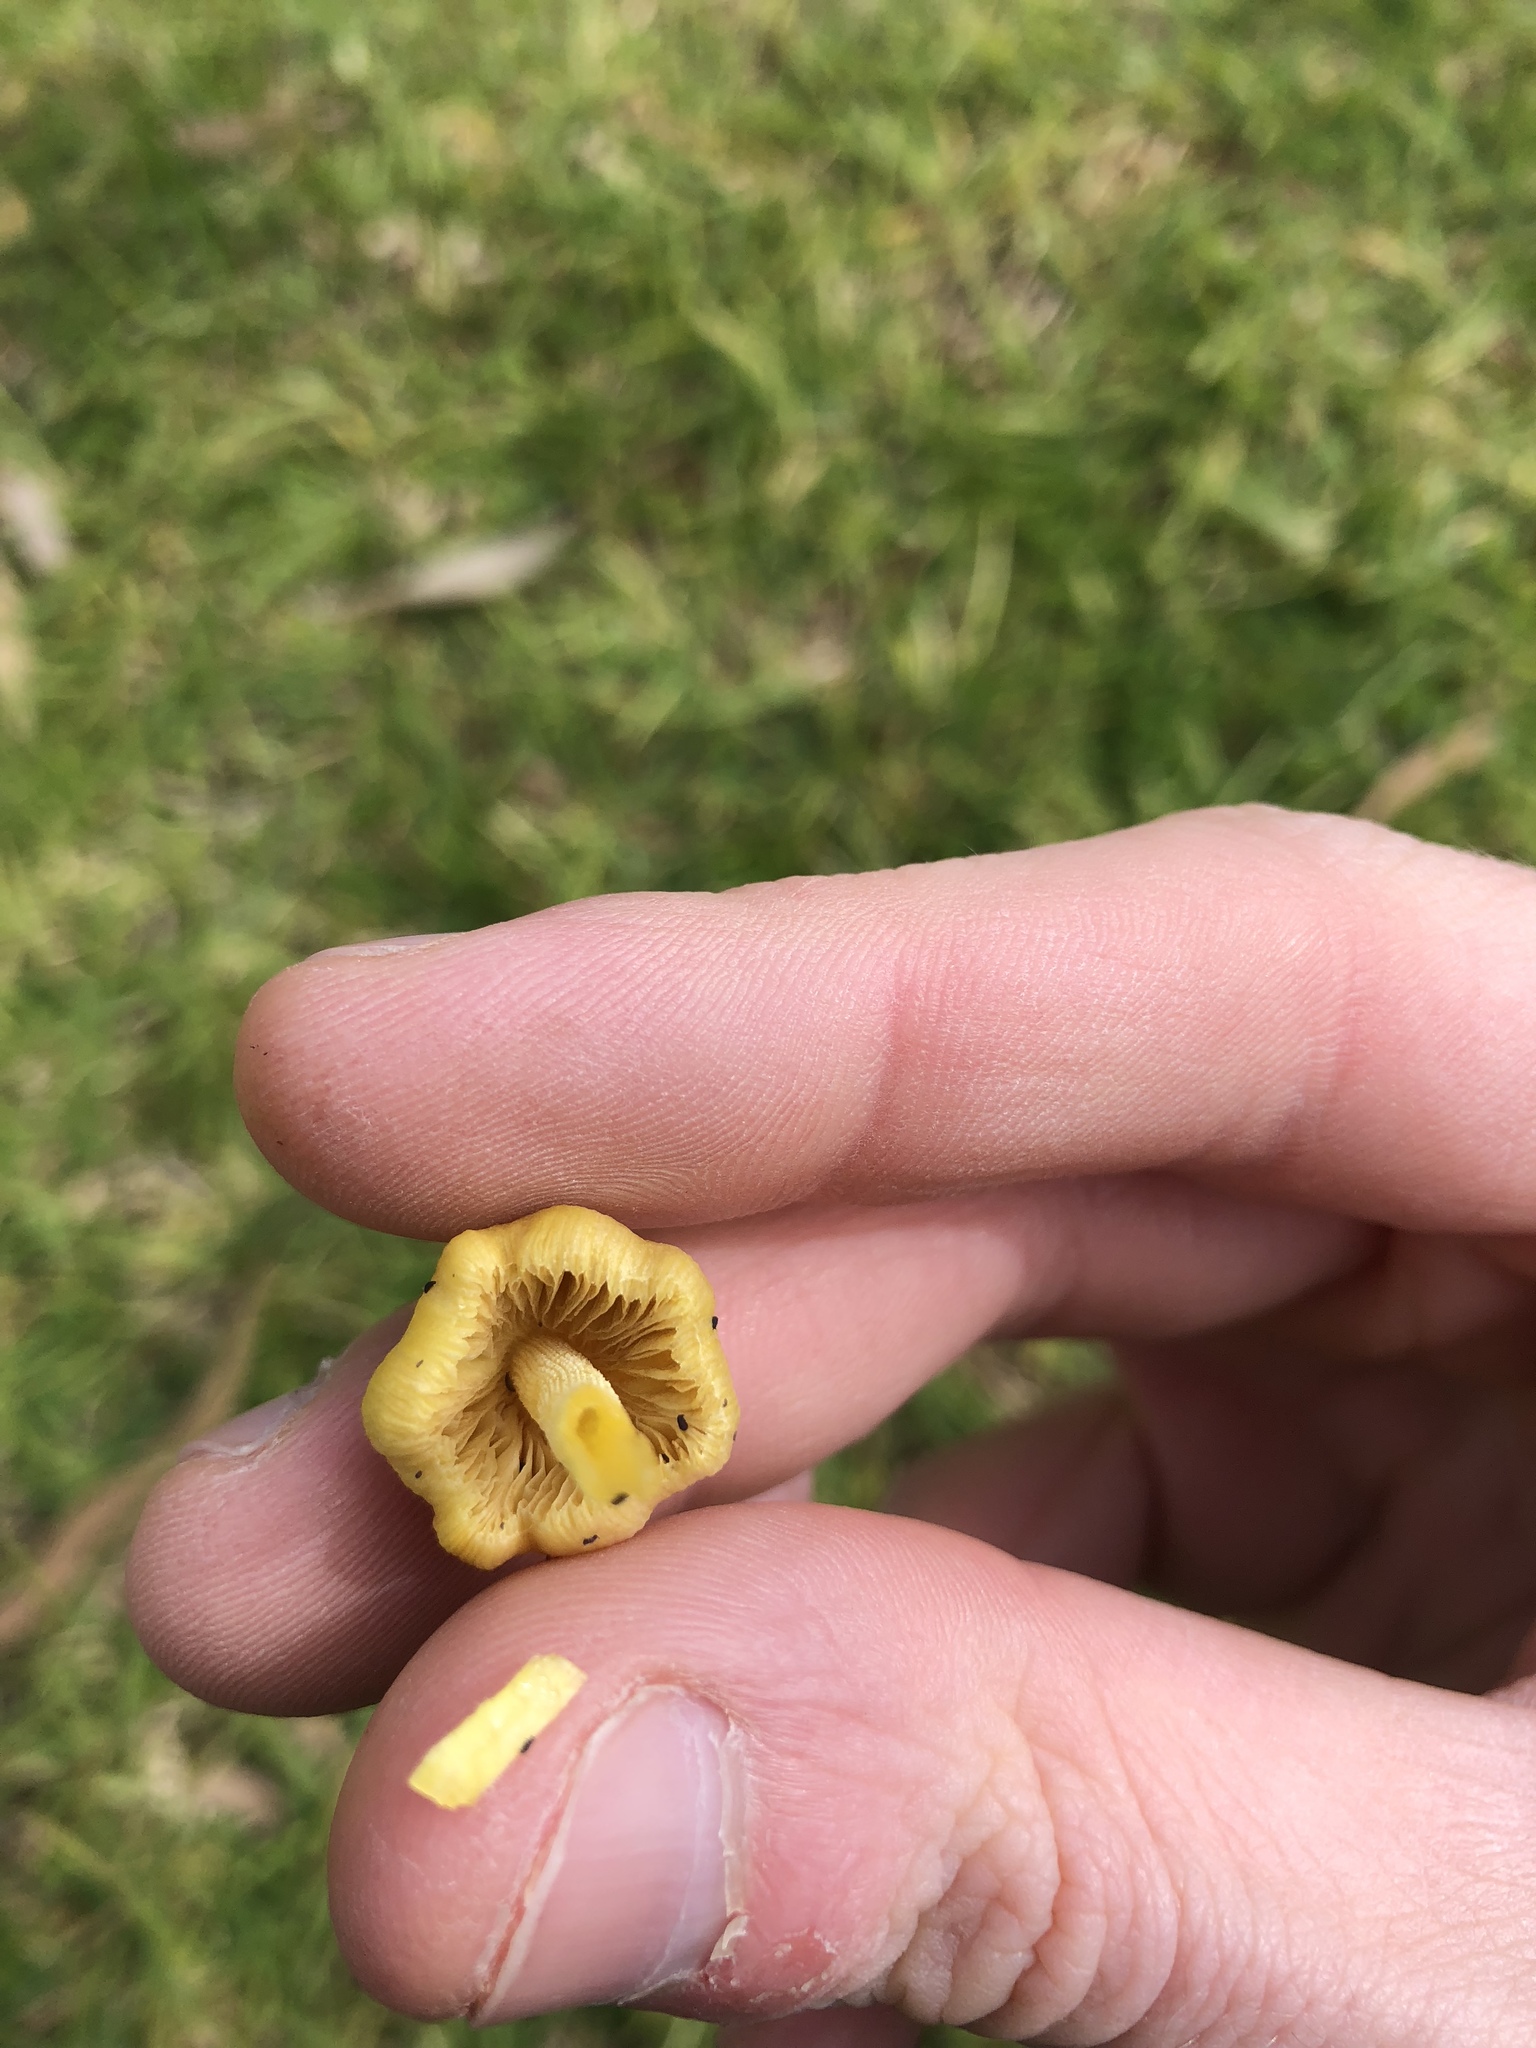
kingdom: Fungi
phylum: Basidiomycota
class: Agaricomycetes
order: Agaricales
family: Bolbitiaceae
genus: Bolbitius
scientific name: Bolbitius titubans
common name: Yellow fieldcap
